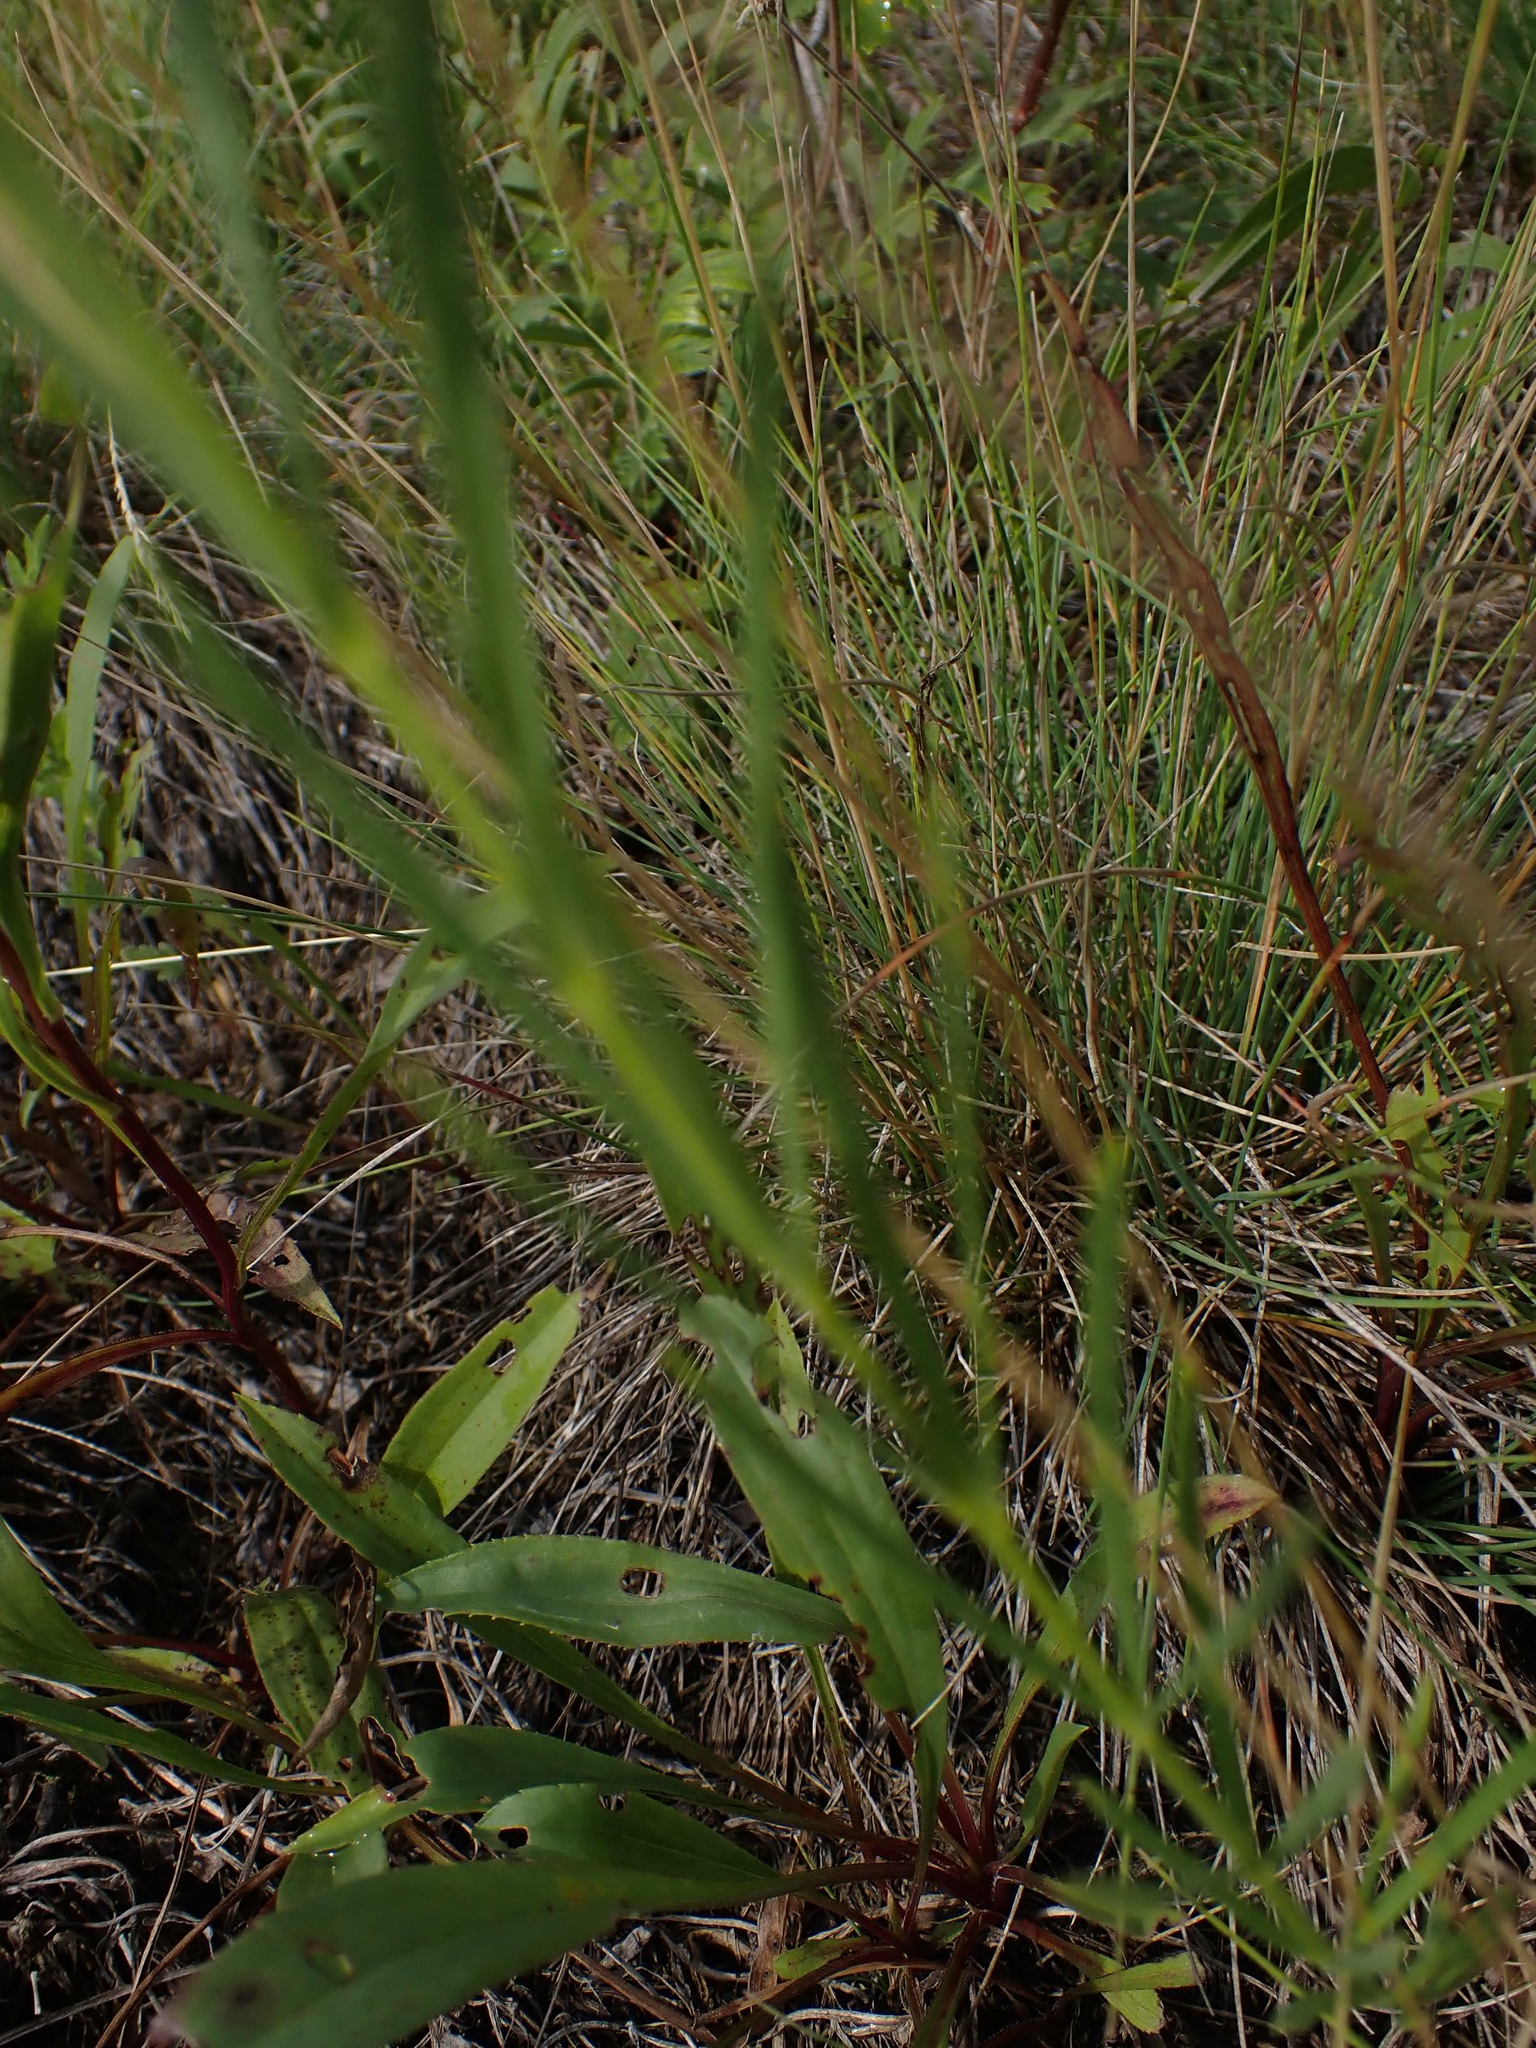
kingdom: Plantae
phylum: Tracheophyta
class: Magnoliopsida
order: Gentianales
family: Apocynaceae
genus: Asclepias
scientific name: Asclepias verticillata
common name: Eastern whorled milkweed
